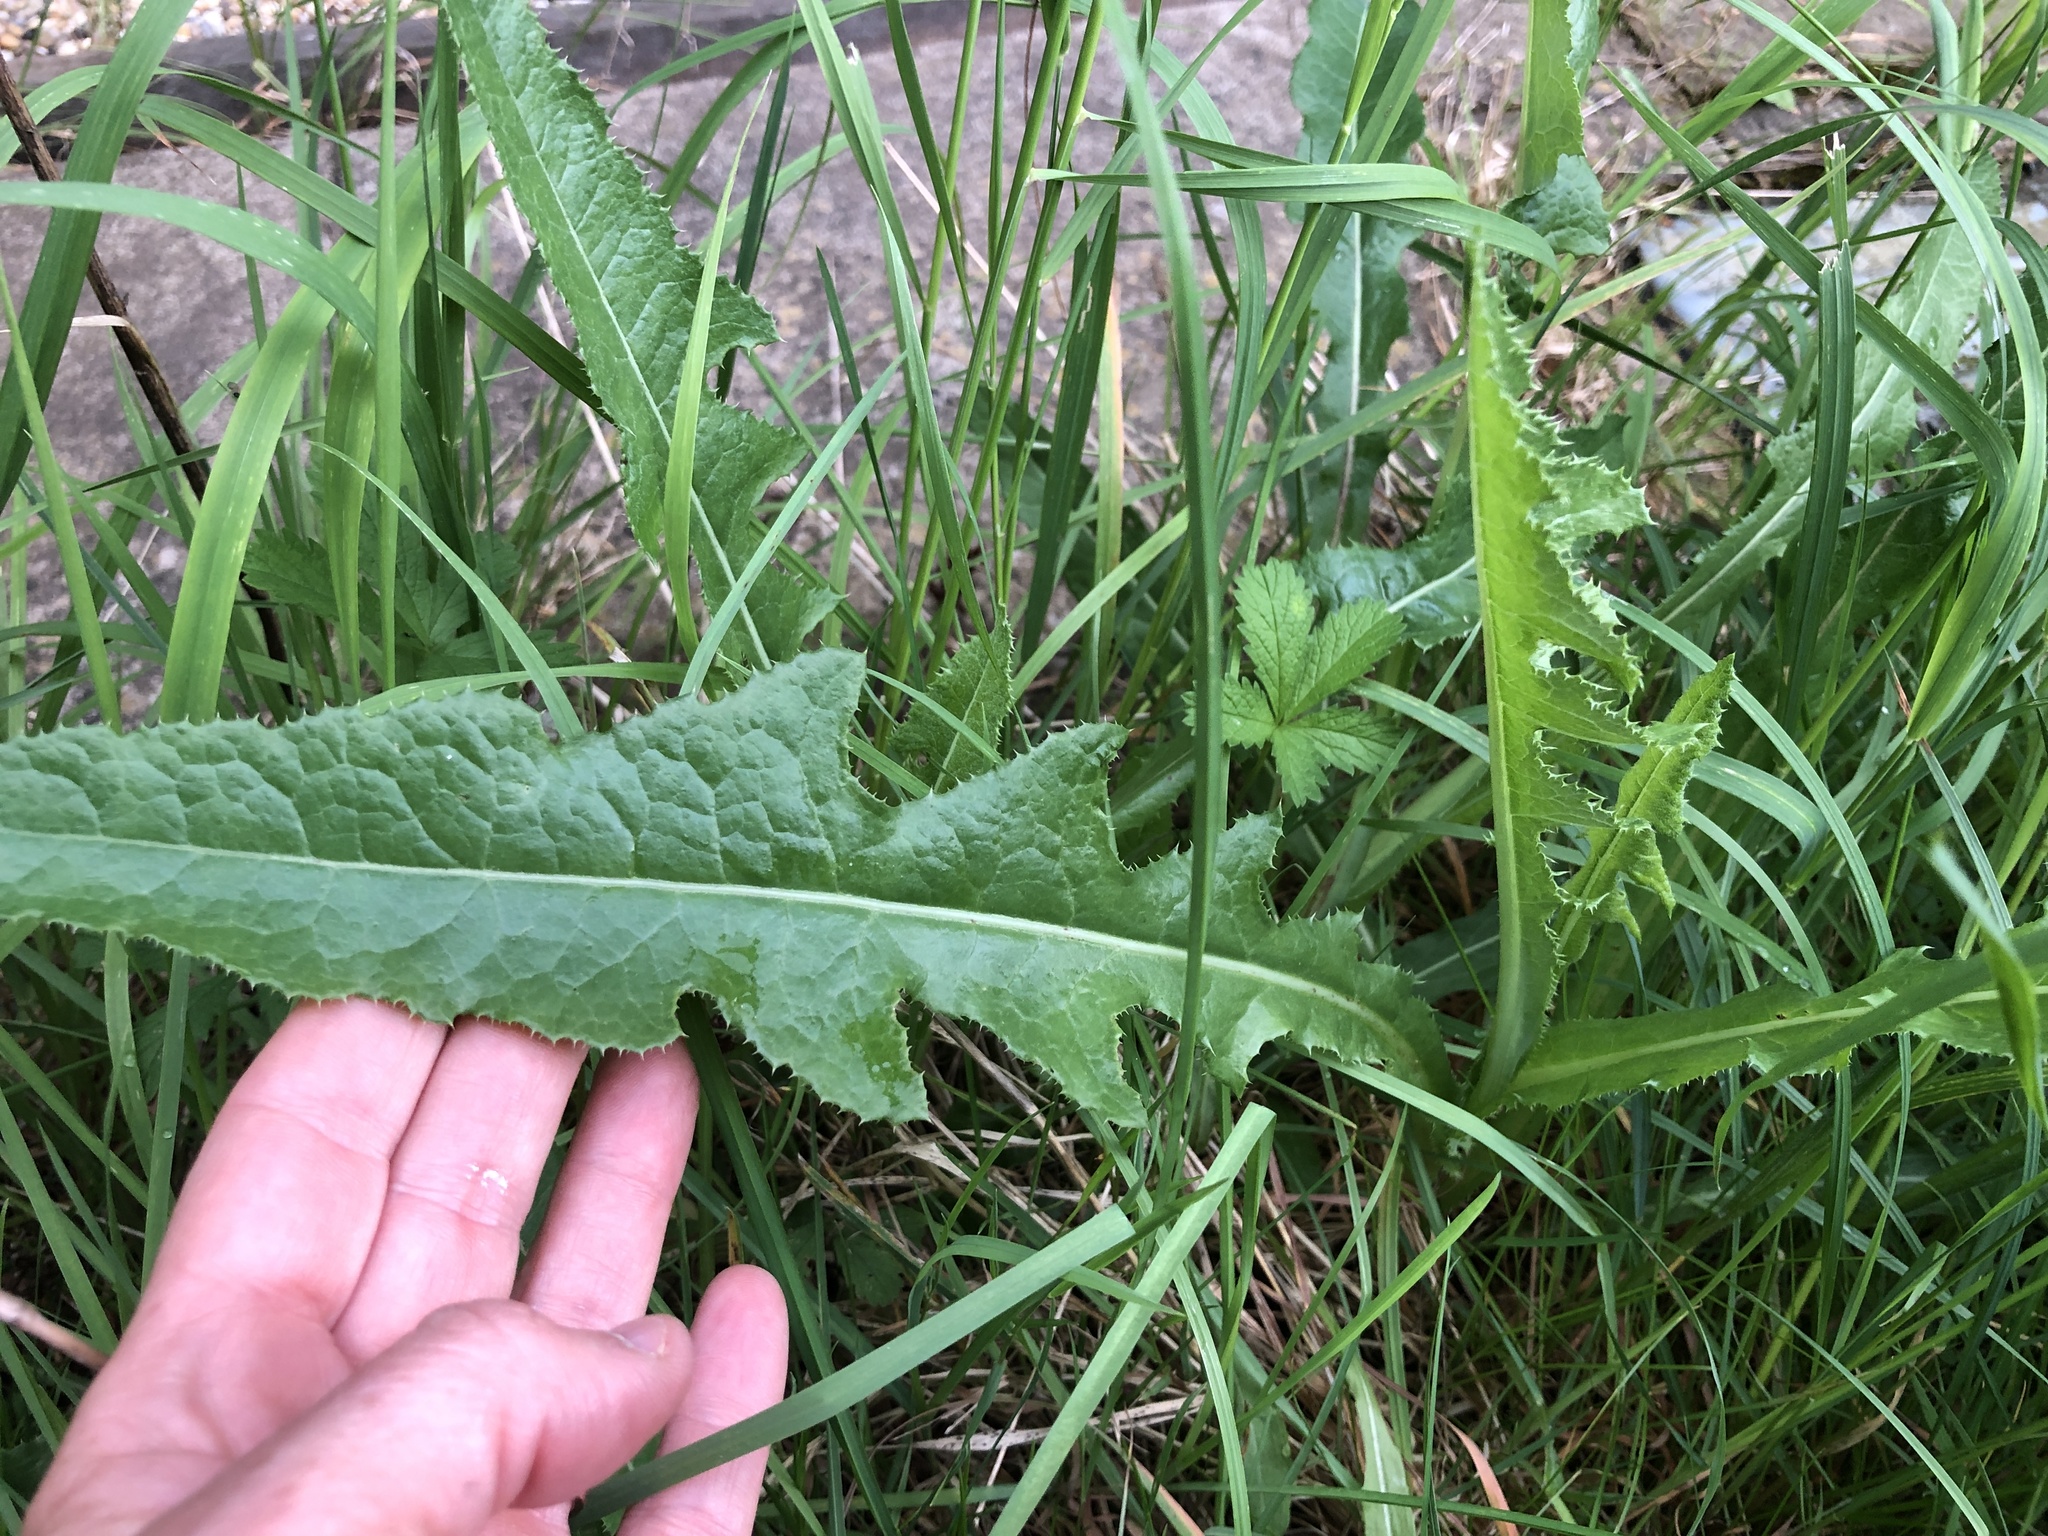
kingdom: Plantae
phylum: Tracheophyta
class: Magnoliopsida
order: Asterales
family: Asteraceae
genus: Sonchus
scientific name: Sonchus arvensis
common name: Perennial sow-thistle
